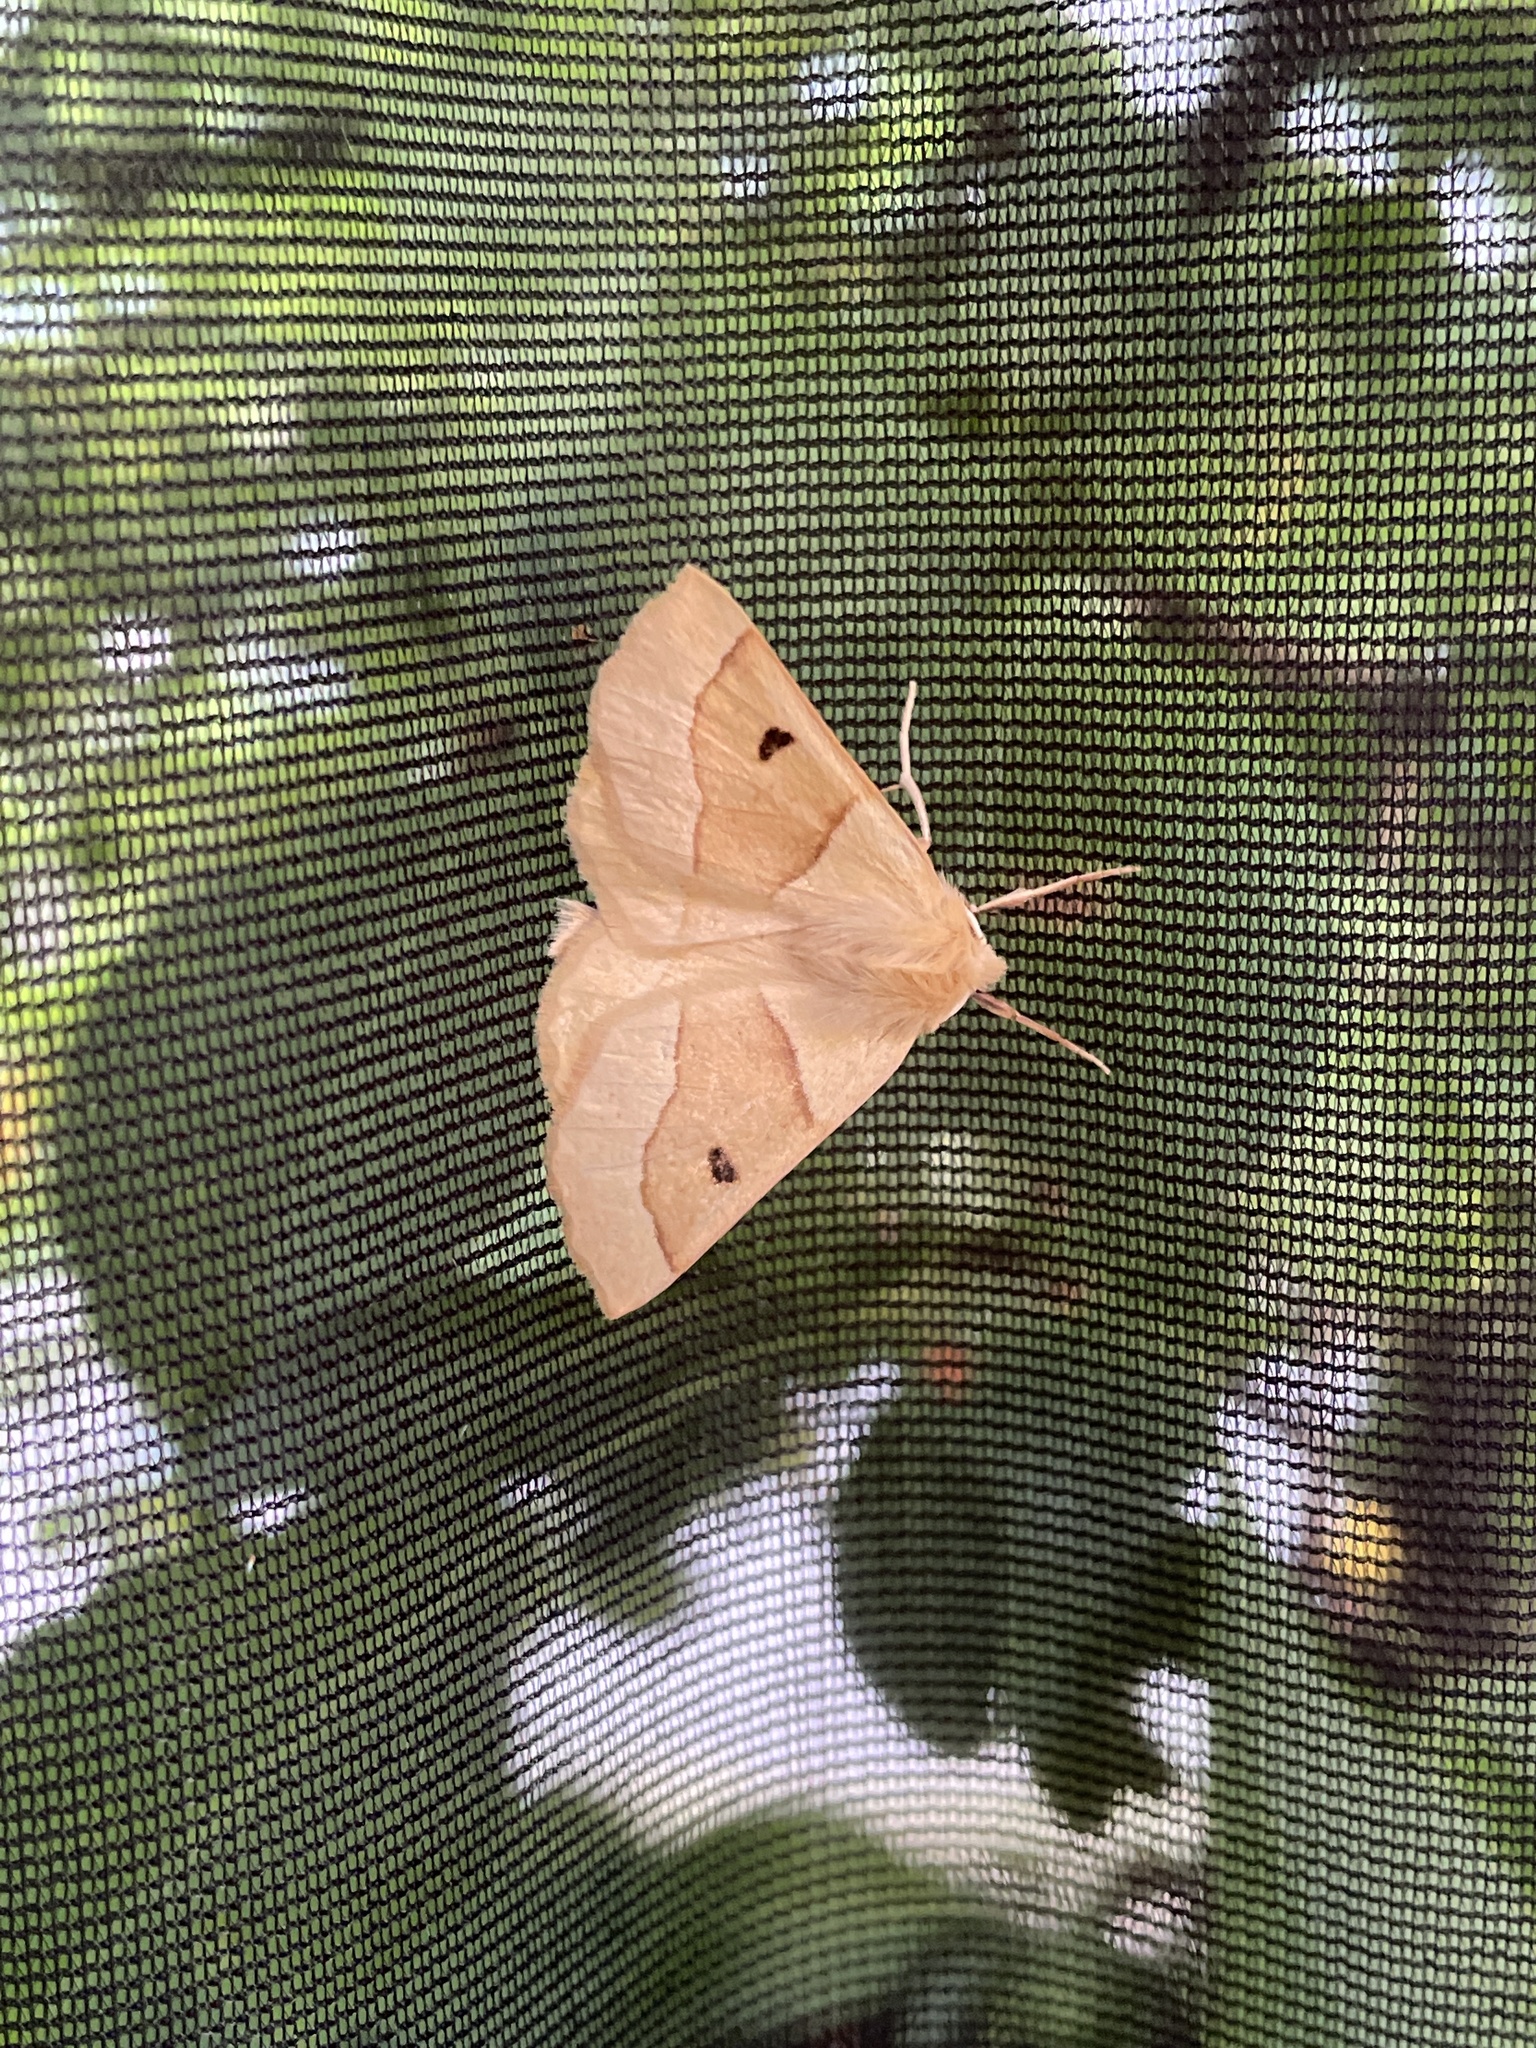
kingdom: Animalia
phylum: Arthropoda
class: Insecta
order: Lepidoptera
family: Geometridae
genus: Crocallis
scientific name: Crocallis elinguaria
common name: Scalloped oak
